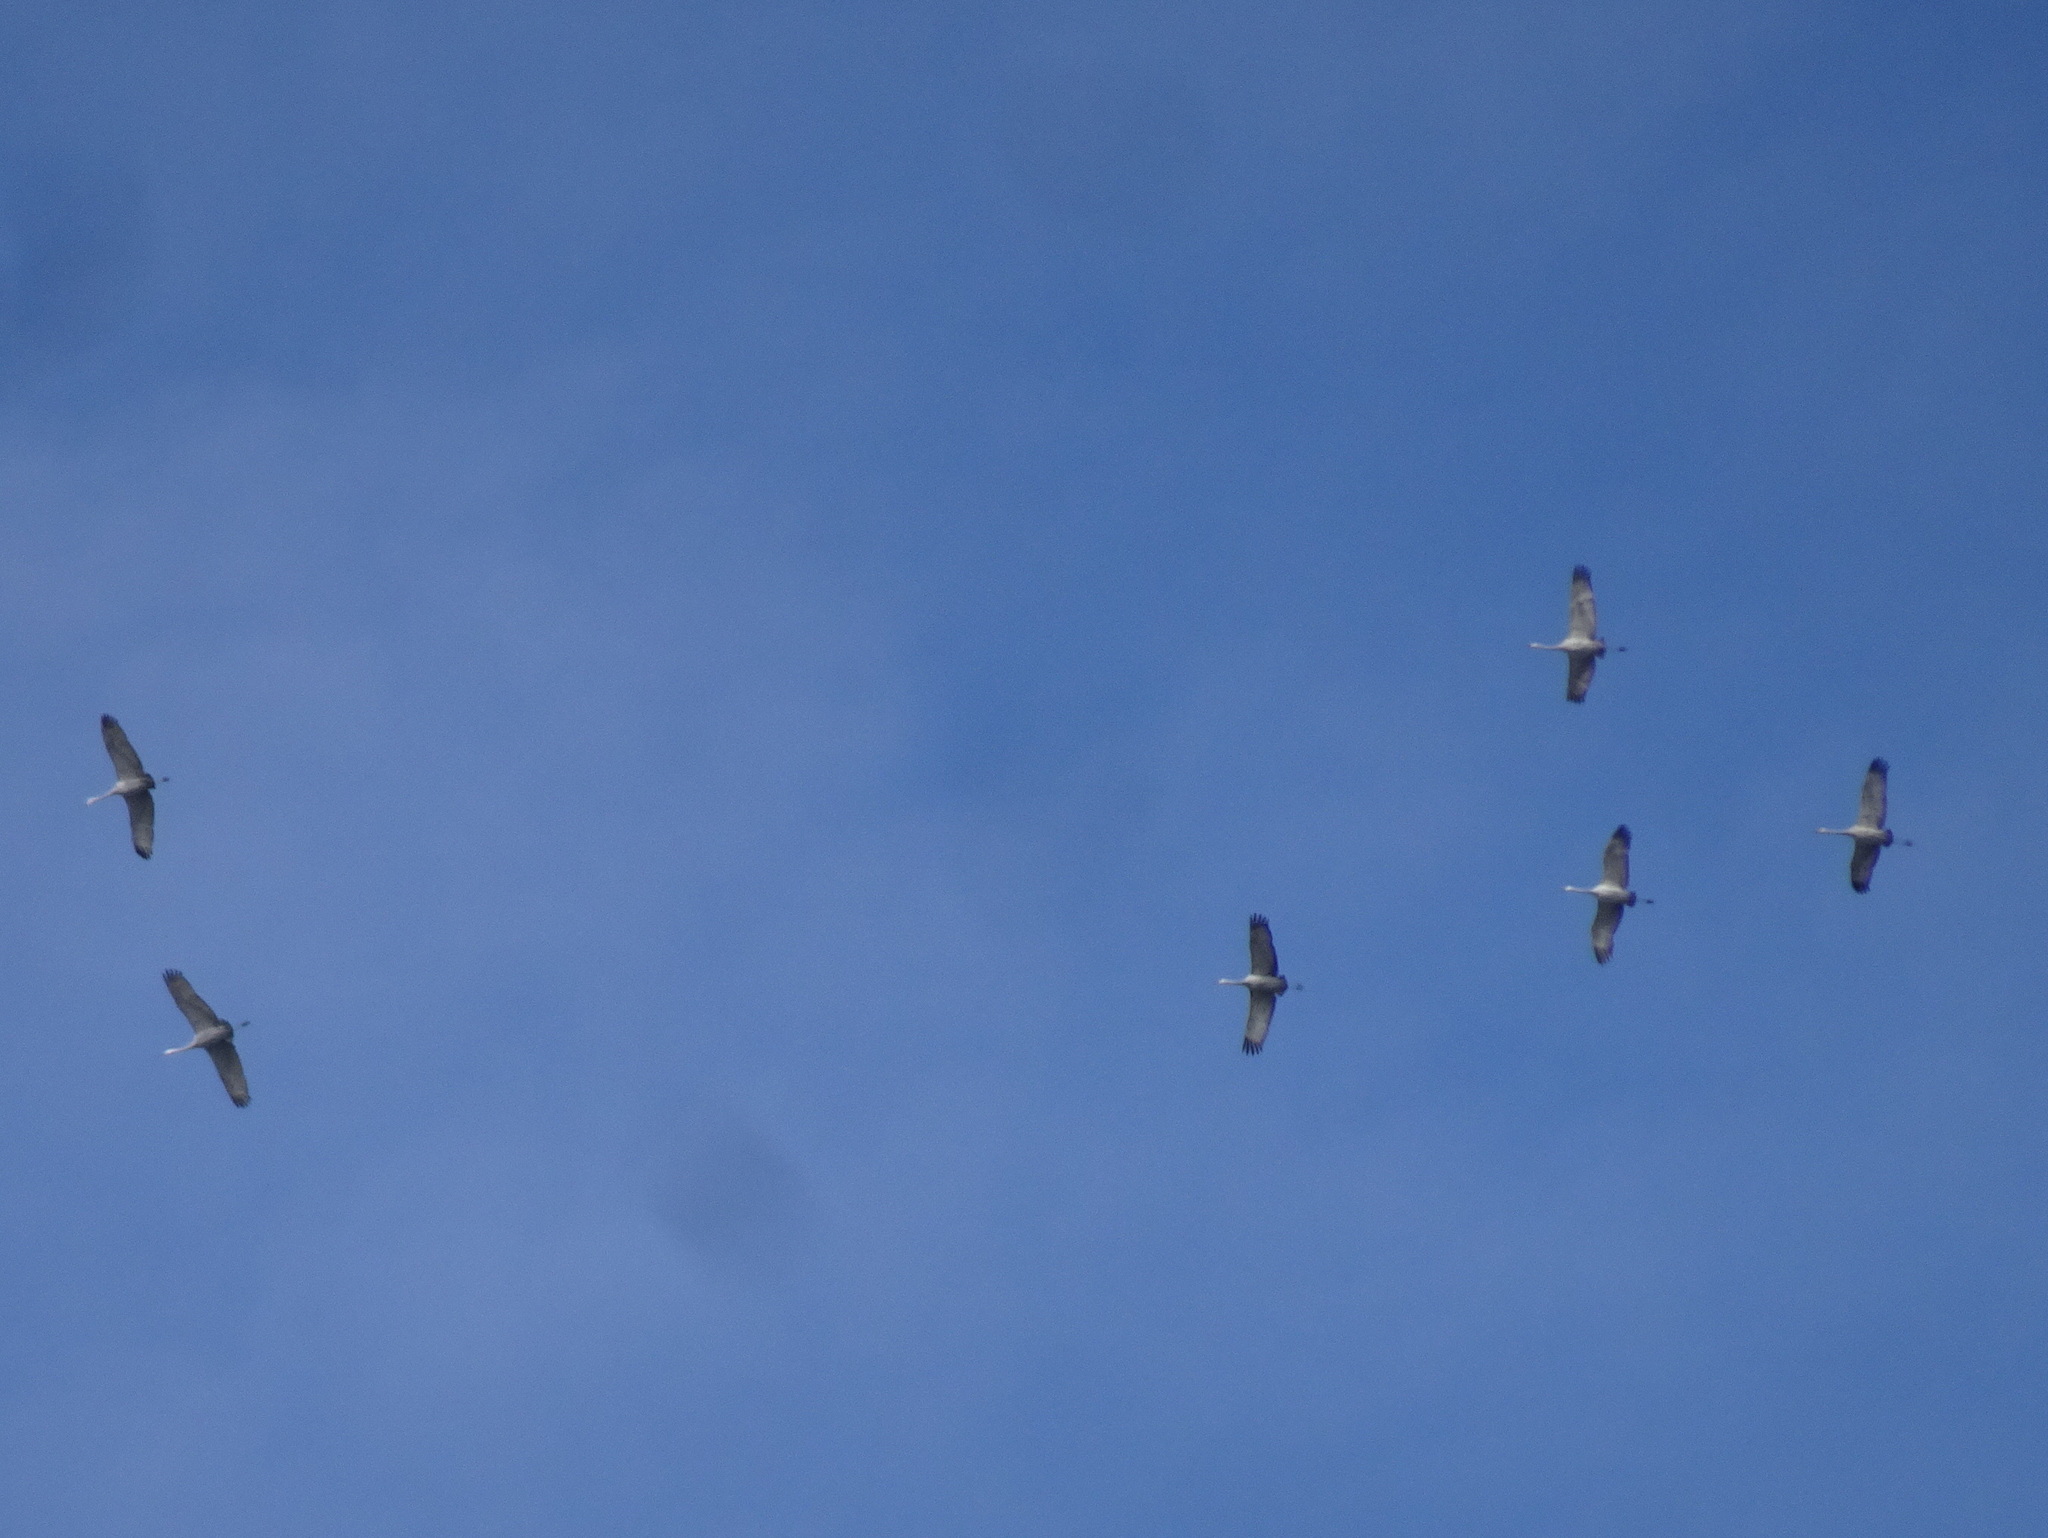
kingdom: Animalia
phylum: Chordata
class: Aves
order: Gruiformes
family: Gruidae
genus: Grus
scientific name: Grus canadensis
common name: Sandhill crane
